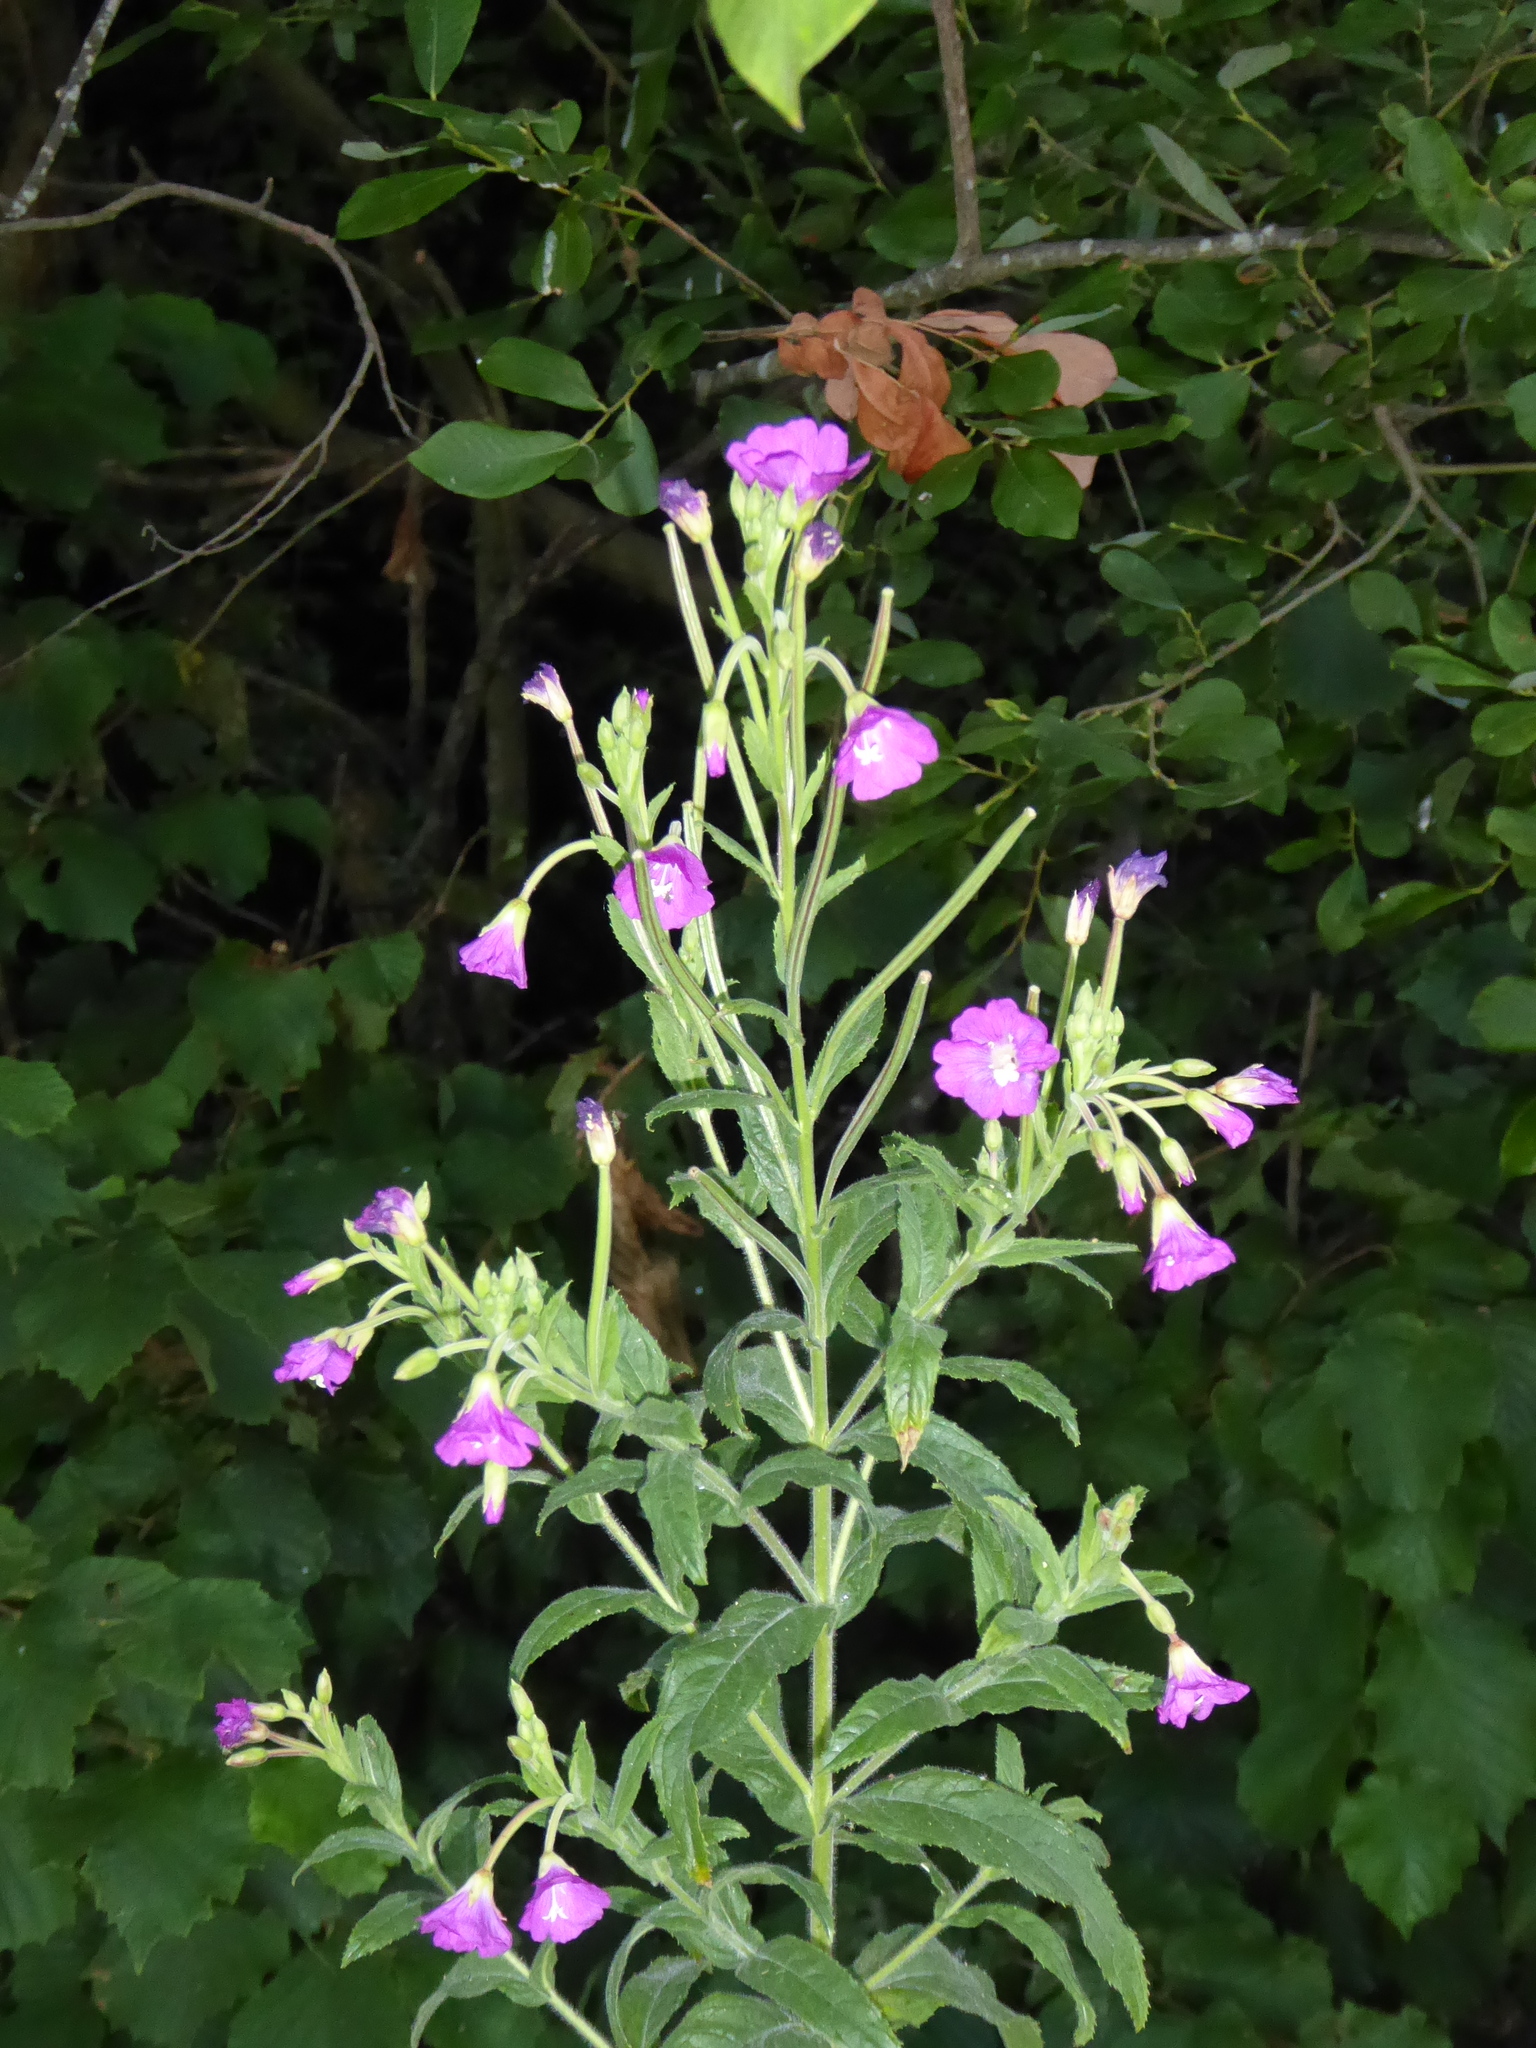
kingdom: Plantae
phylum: Tracheophyta
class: Magnoliopsida
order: Myrtales
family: Onagraceae
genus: Epilobium
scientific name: Epilobium hirsutum
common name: Great willowherb
